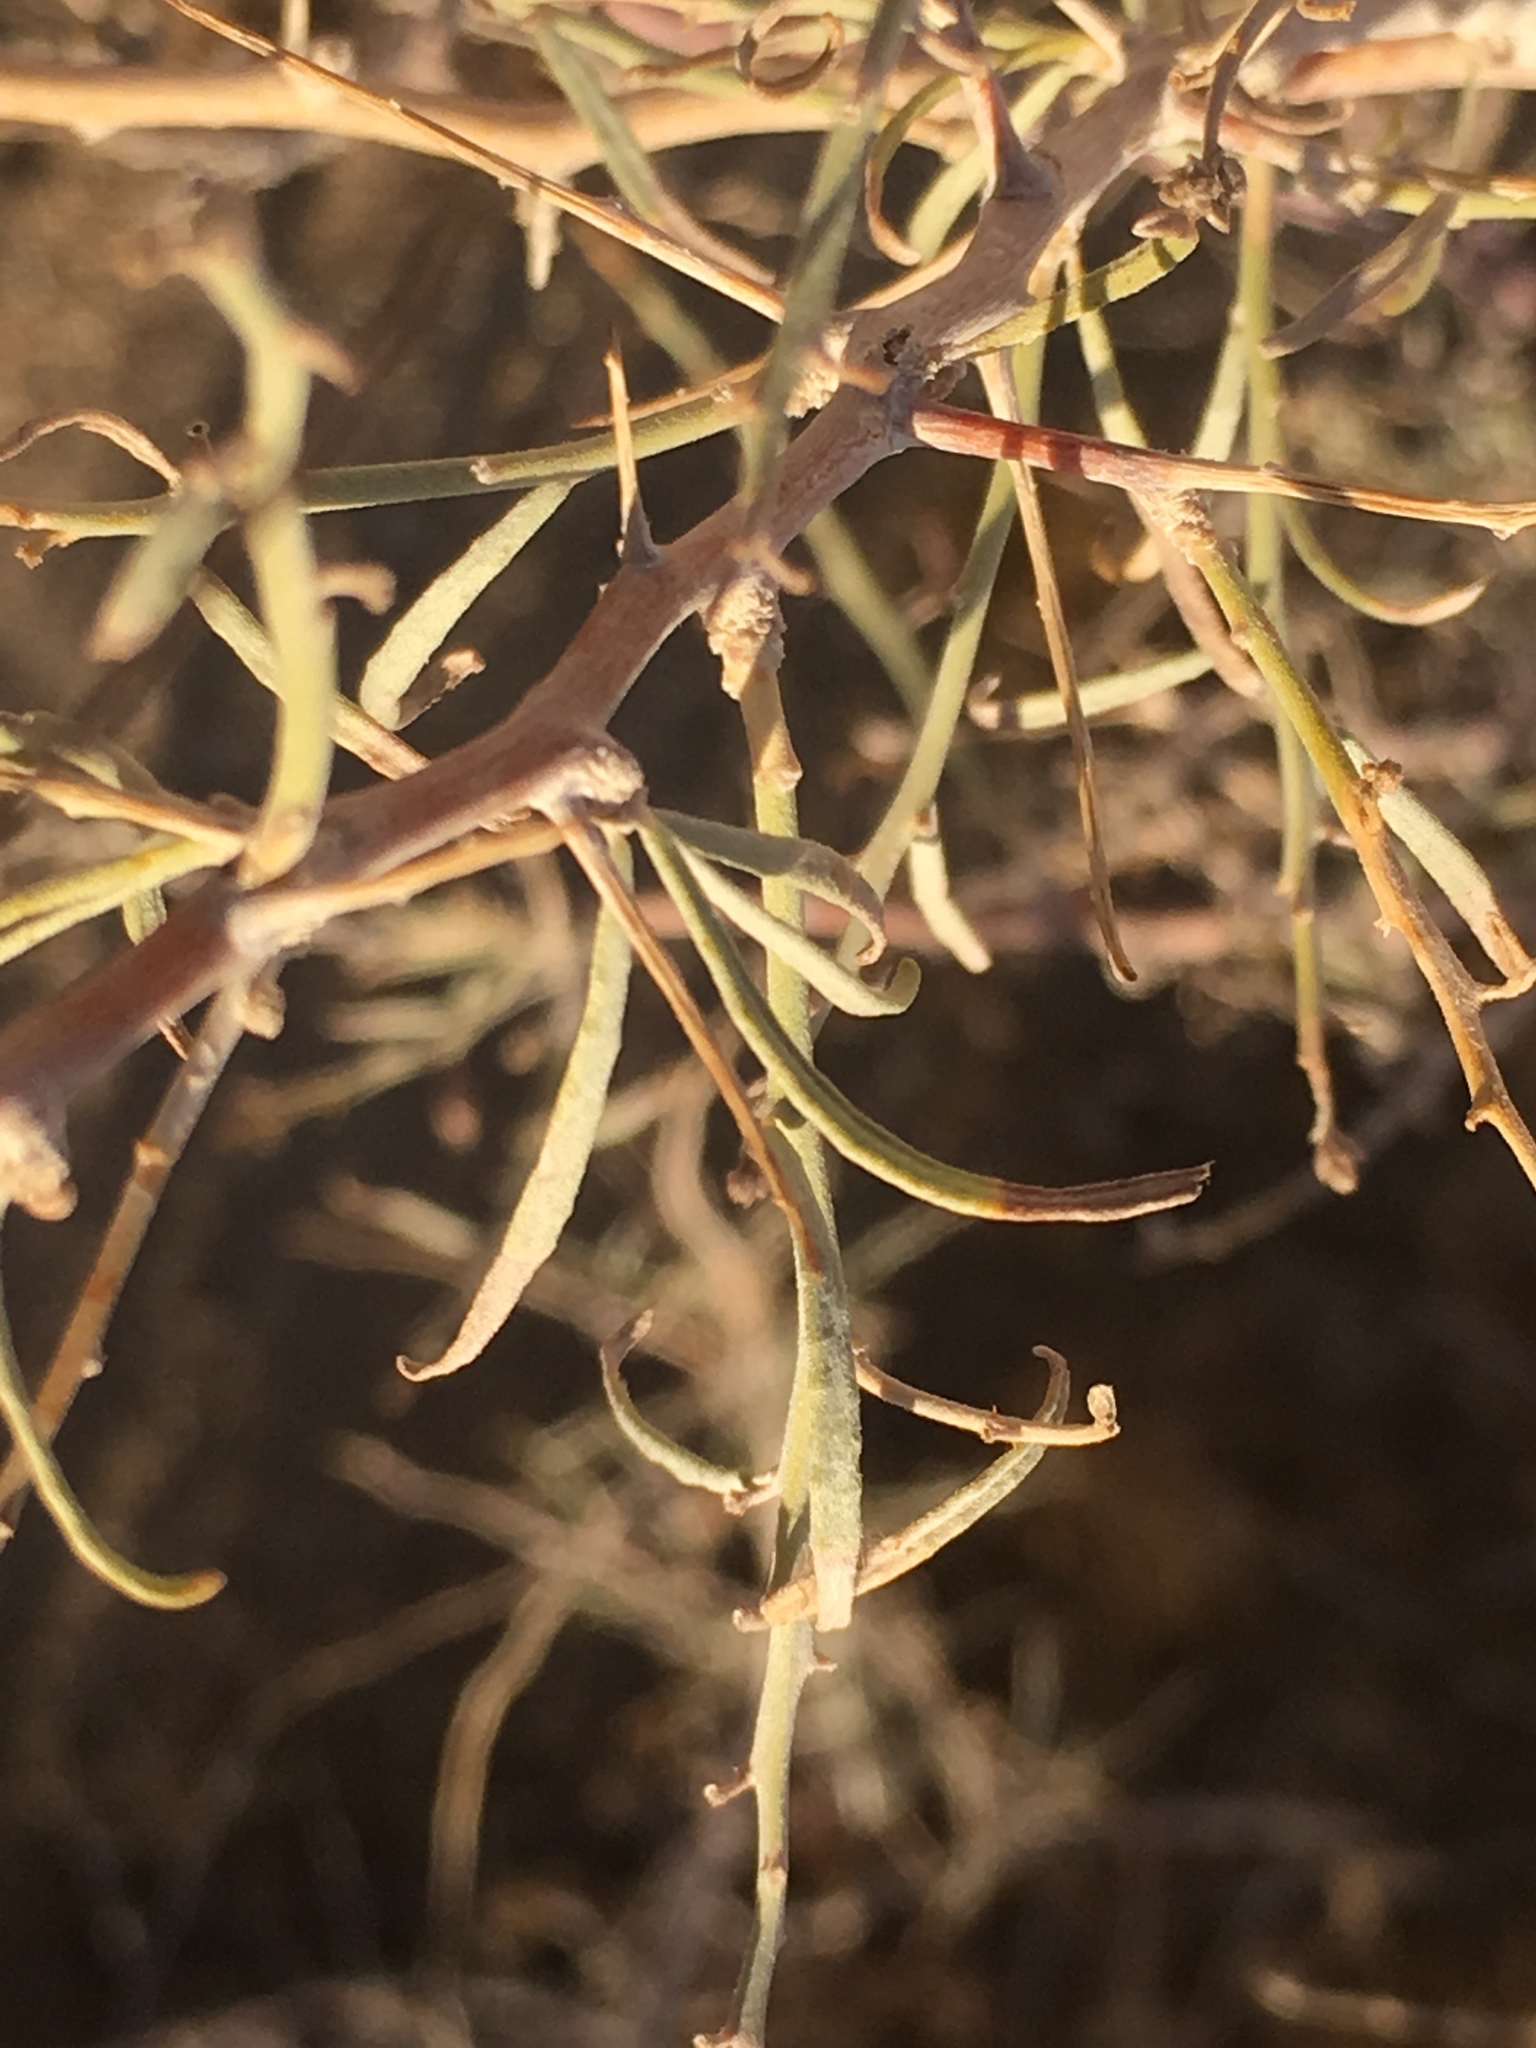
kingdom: Plantae
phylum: Tracheophyta
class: Magnoliopsida
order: Fabales
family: Fabaceae
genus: Psorothamnus
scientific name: Psorothamnus schottii
